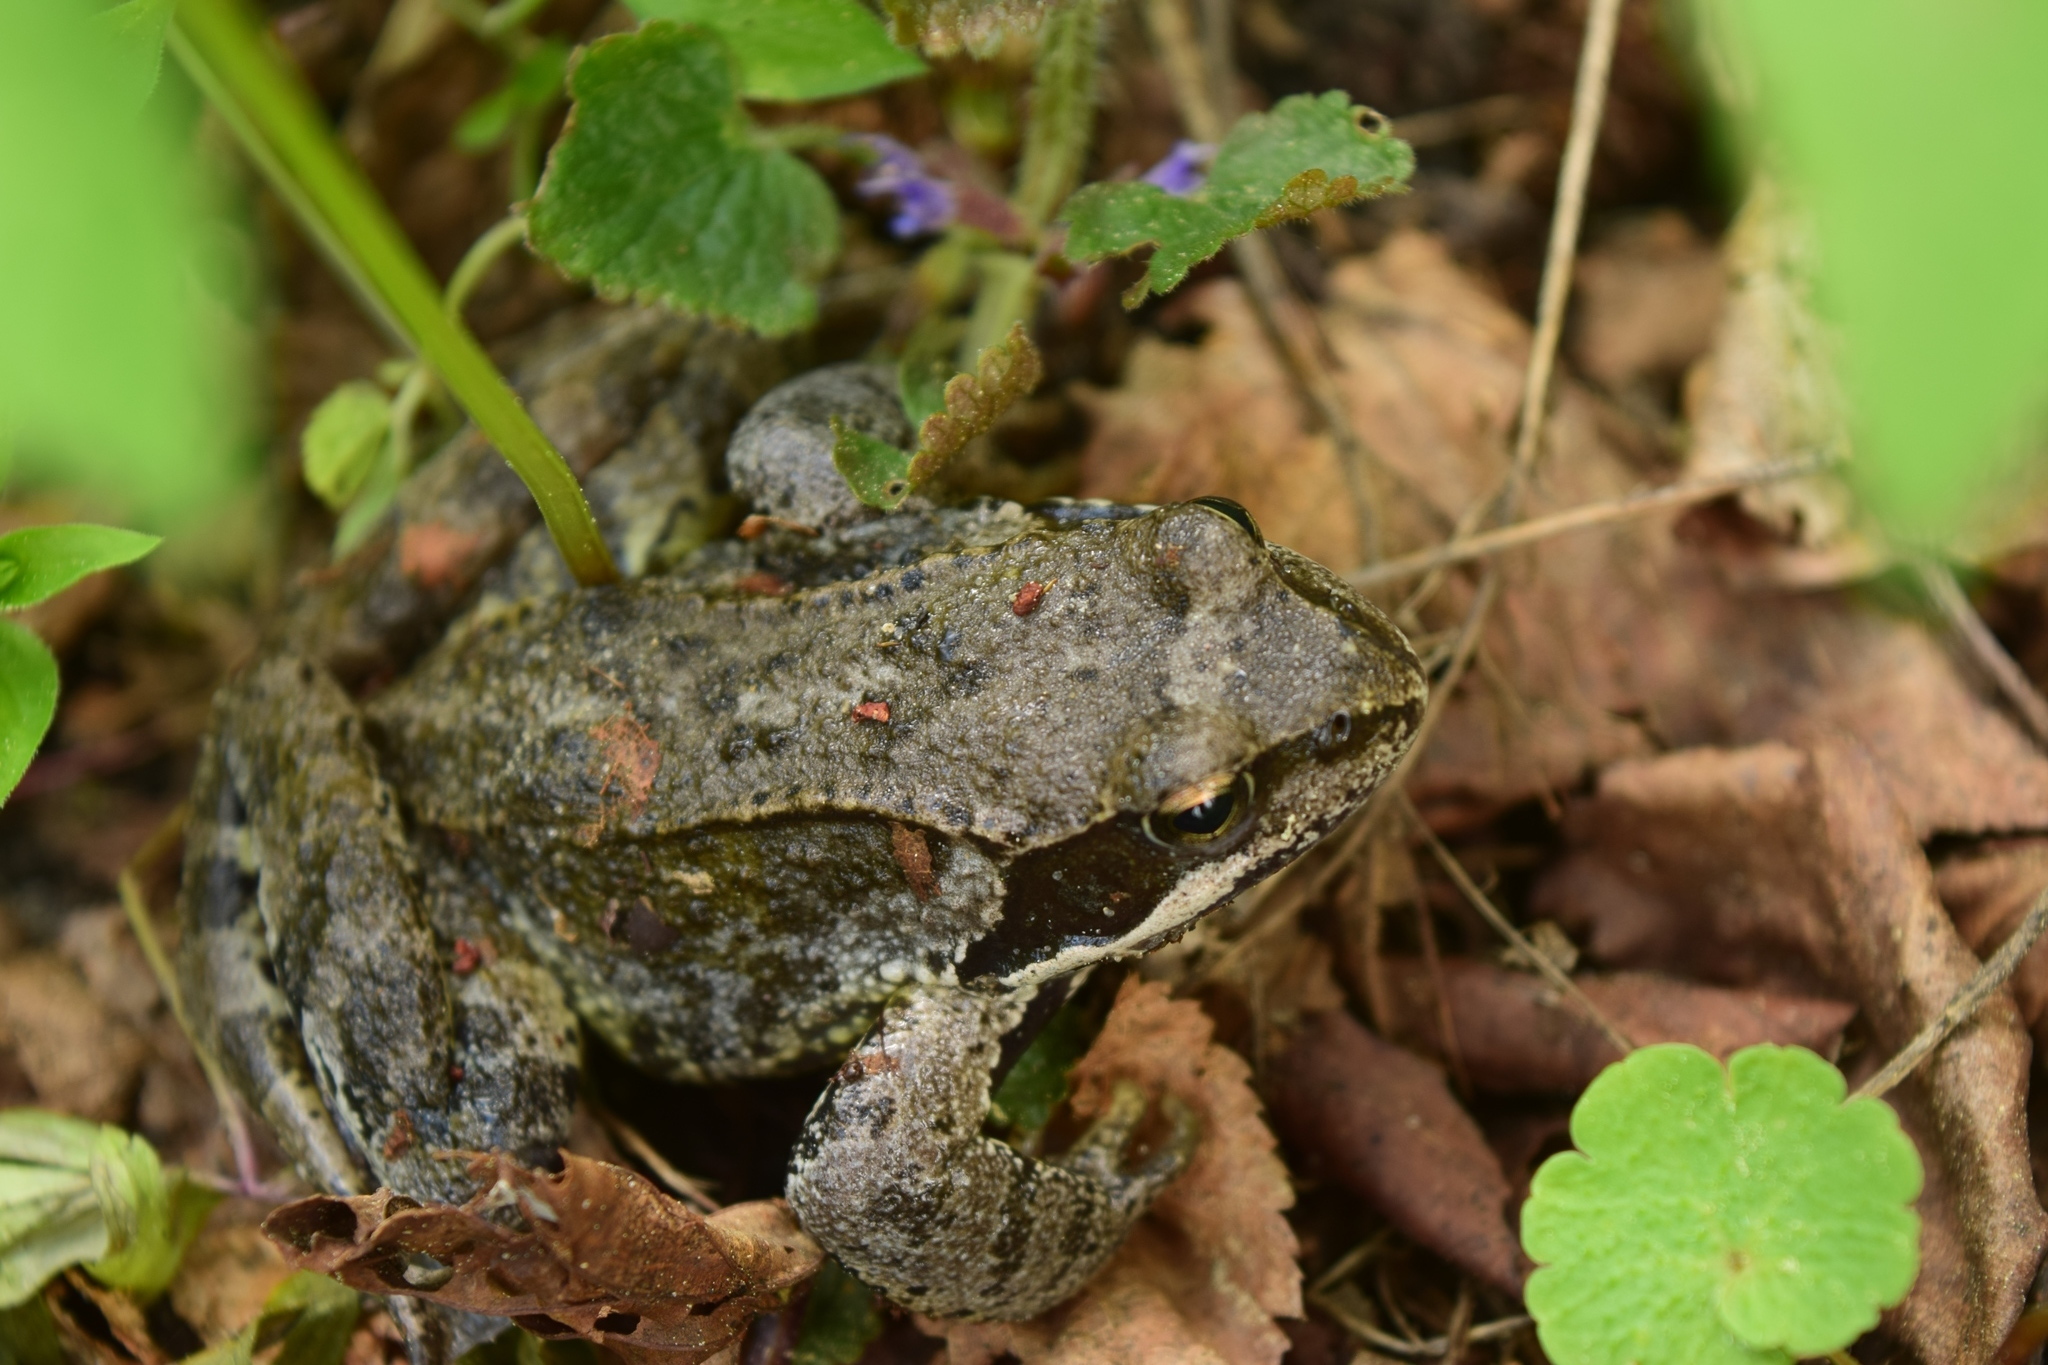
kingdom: Animalia
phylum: Chordata
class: Amphibia
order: Anura
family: Ranidae
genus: Rana
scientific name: Rana temporaria
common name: Common frog
